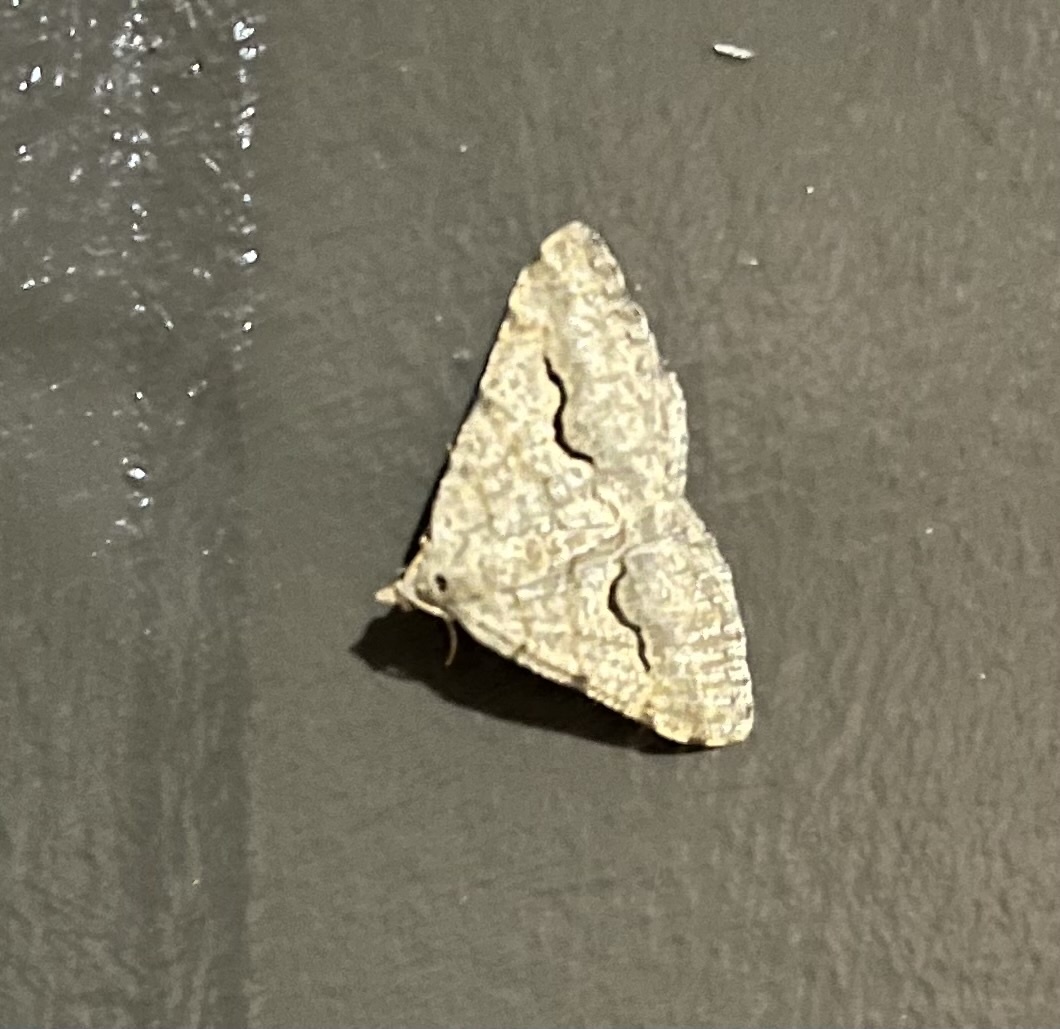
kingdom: Animalia
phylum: Arthropoda
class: Insecta
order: Lepidoptera
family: Geometridae
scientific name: Geometridae
